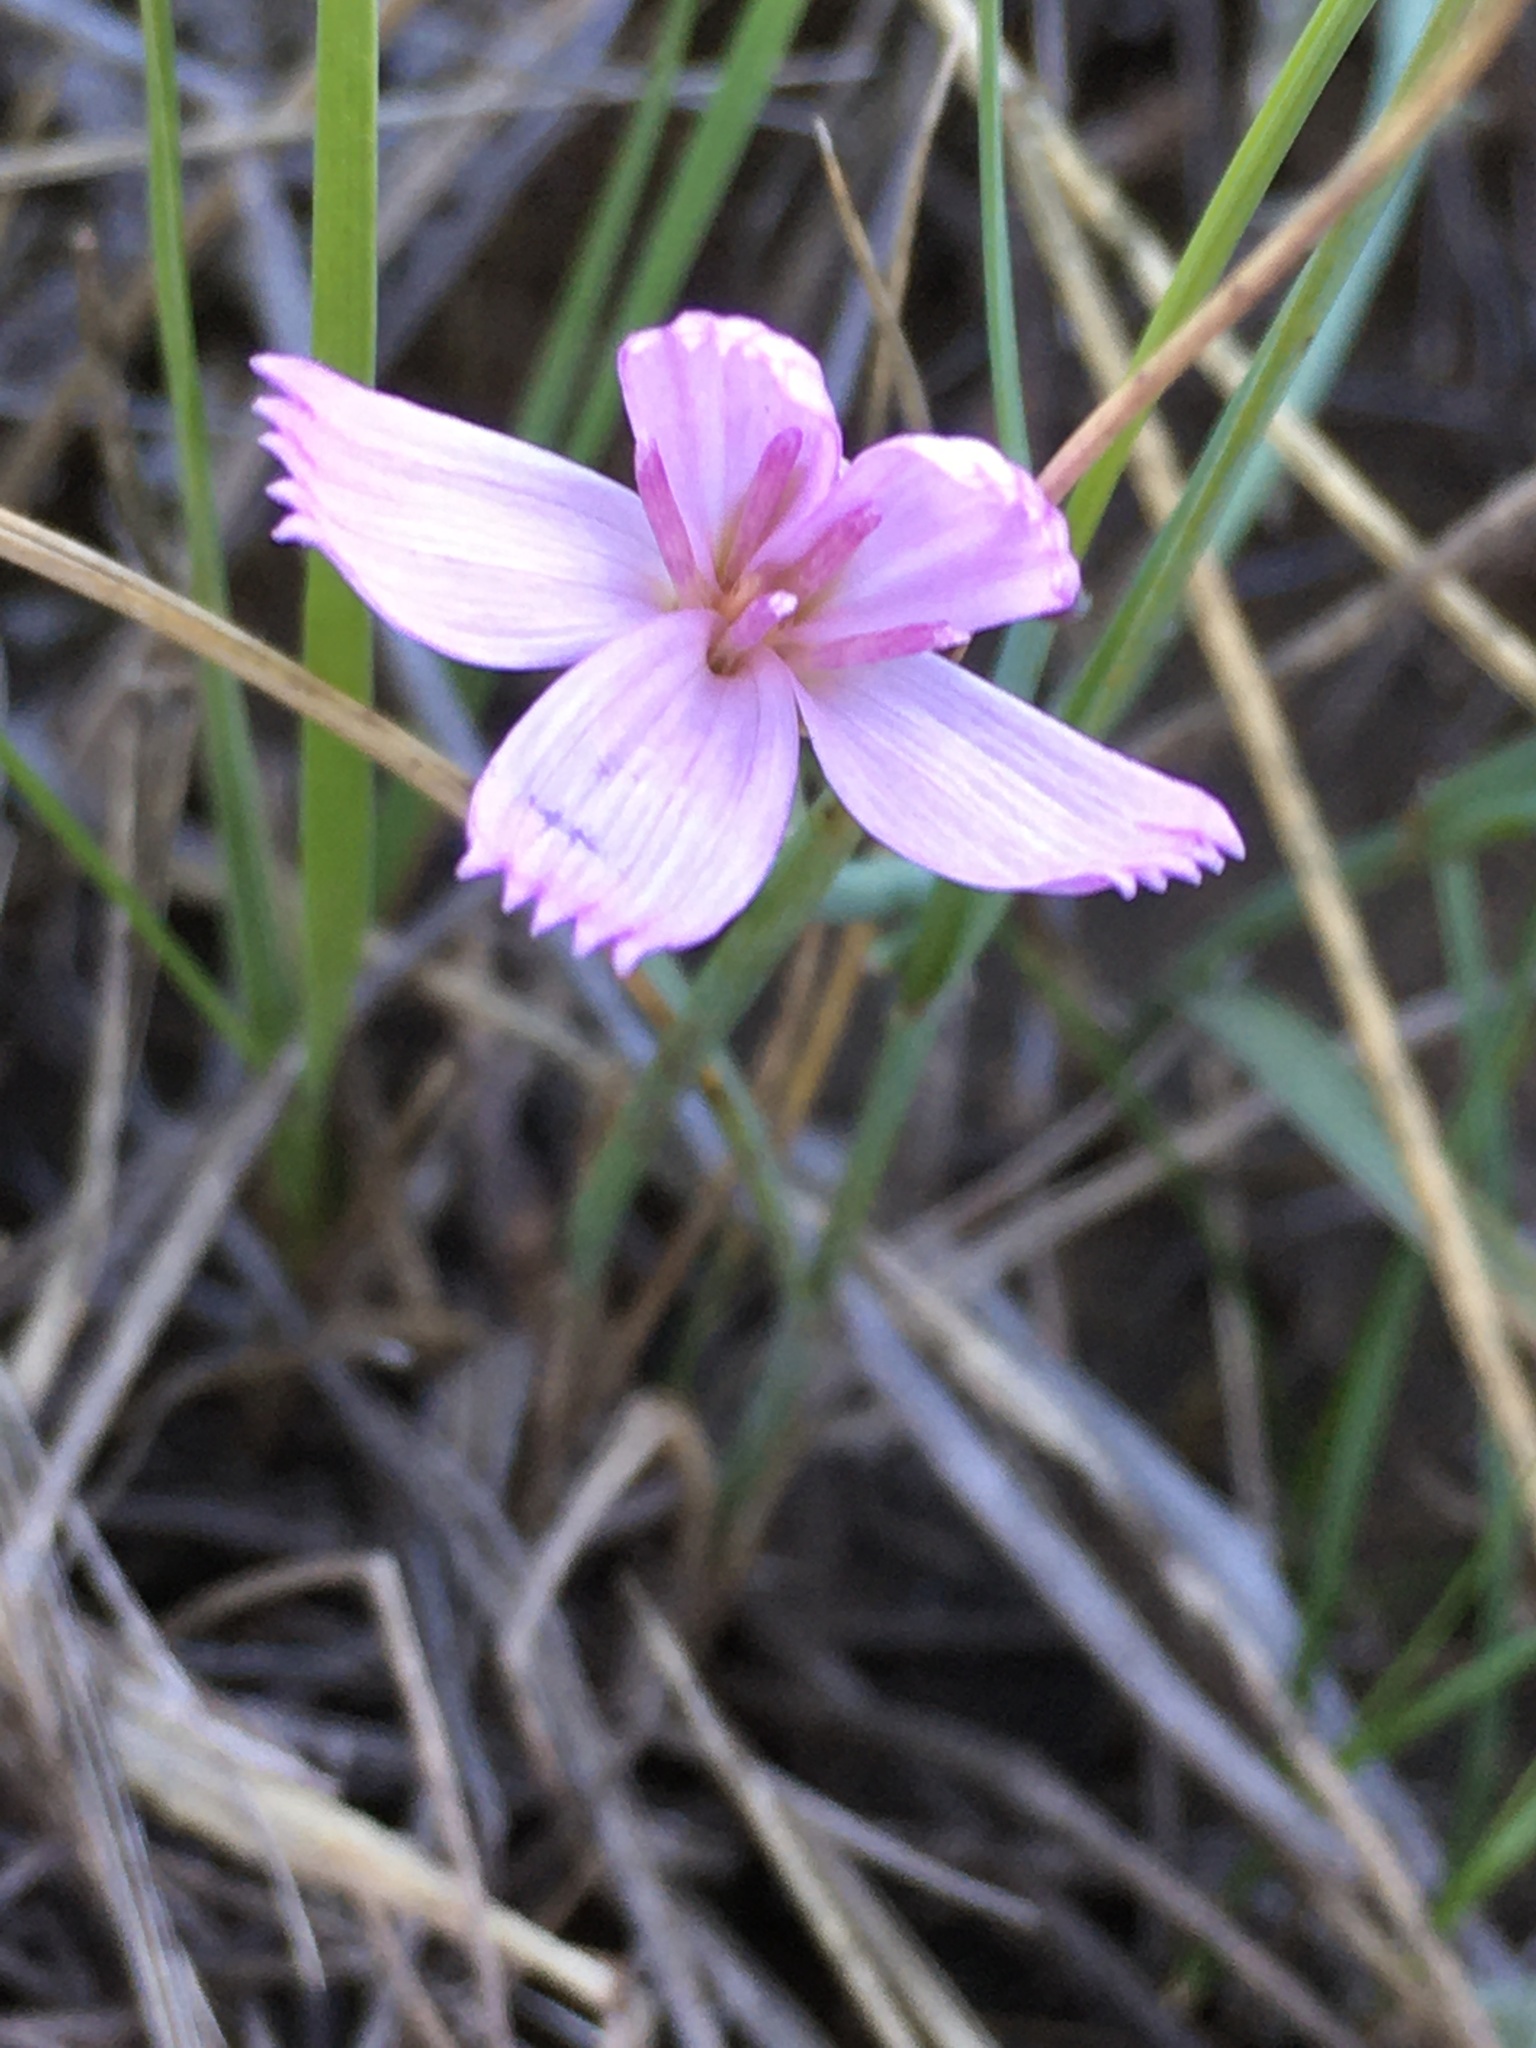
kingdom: Plantae
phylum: Tracheophyta
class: Magnoliopsida
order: Asterales
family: Asteraceae
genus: Lygodesmia
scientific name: Lygodesmia juncea
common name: Common skeletonweed
